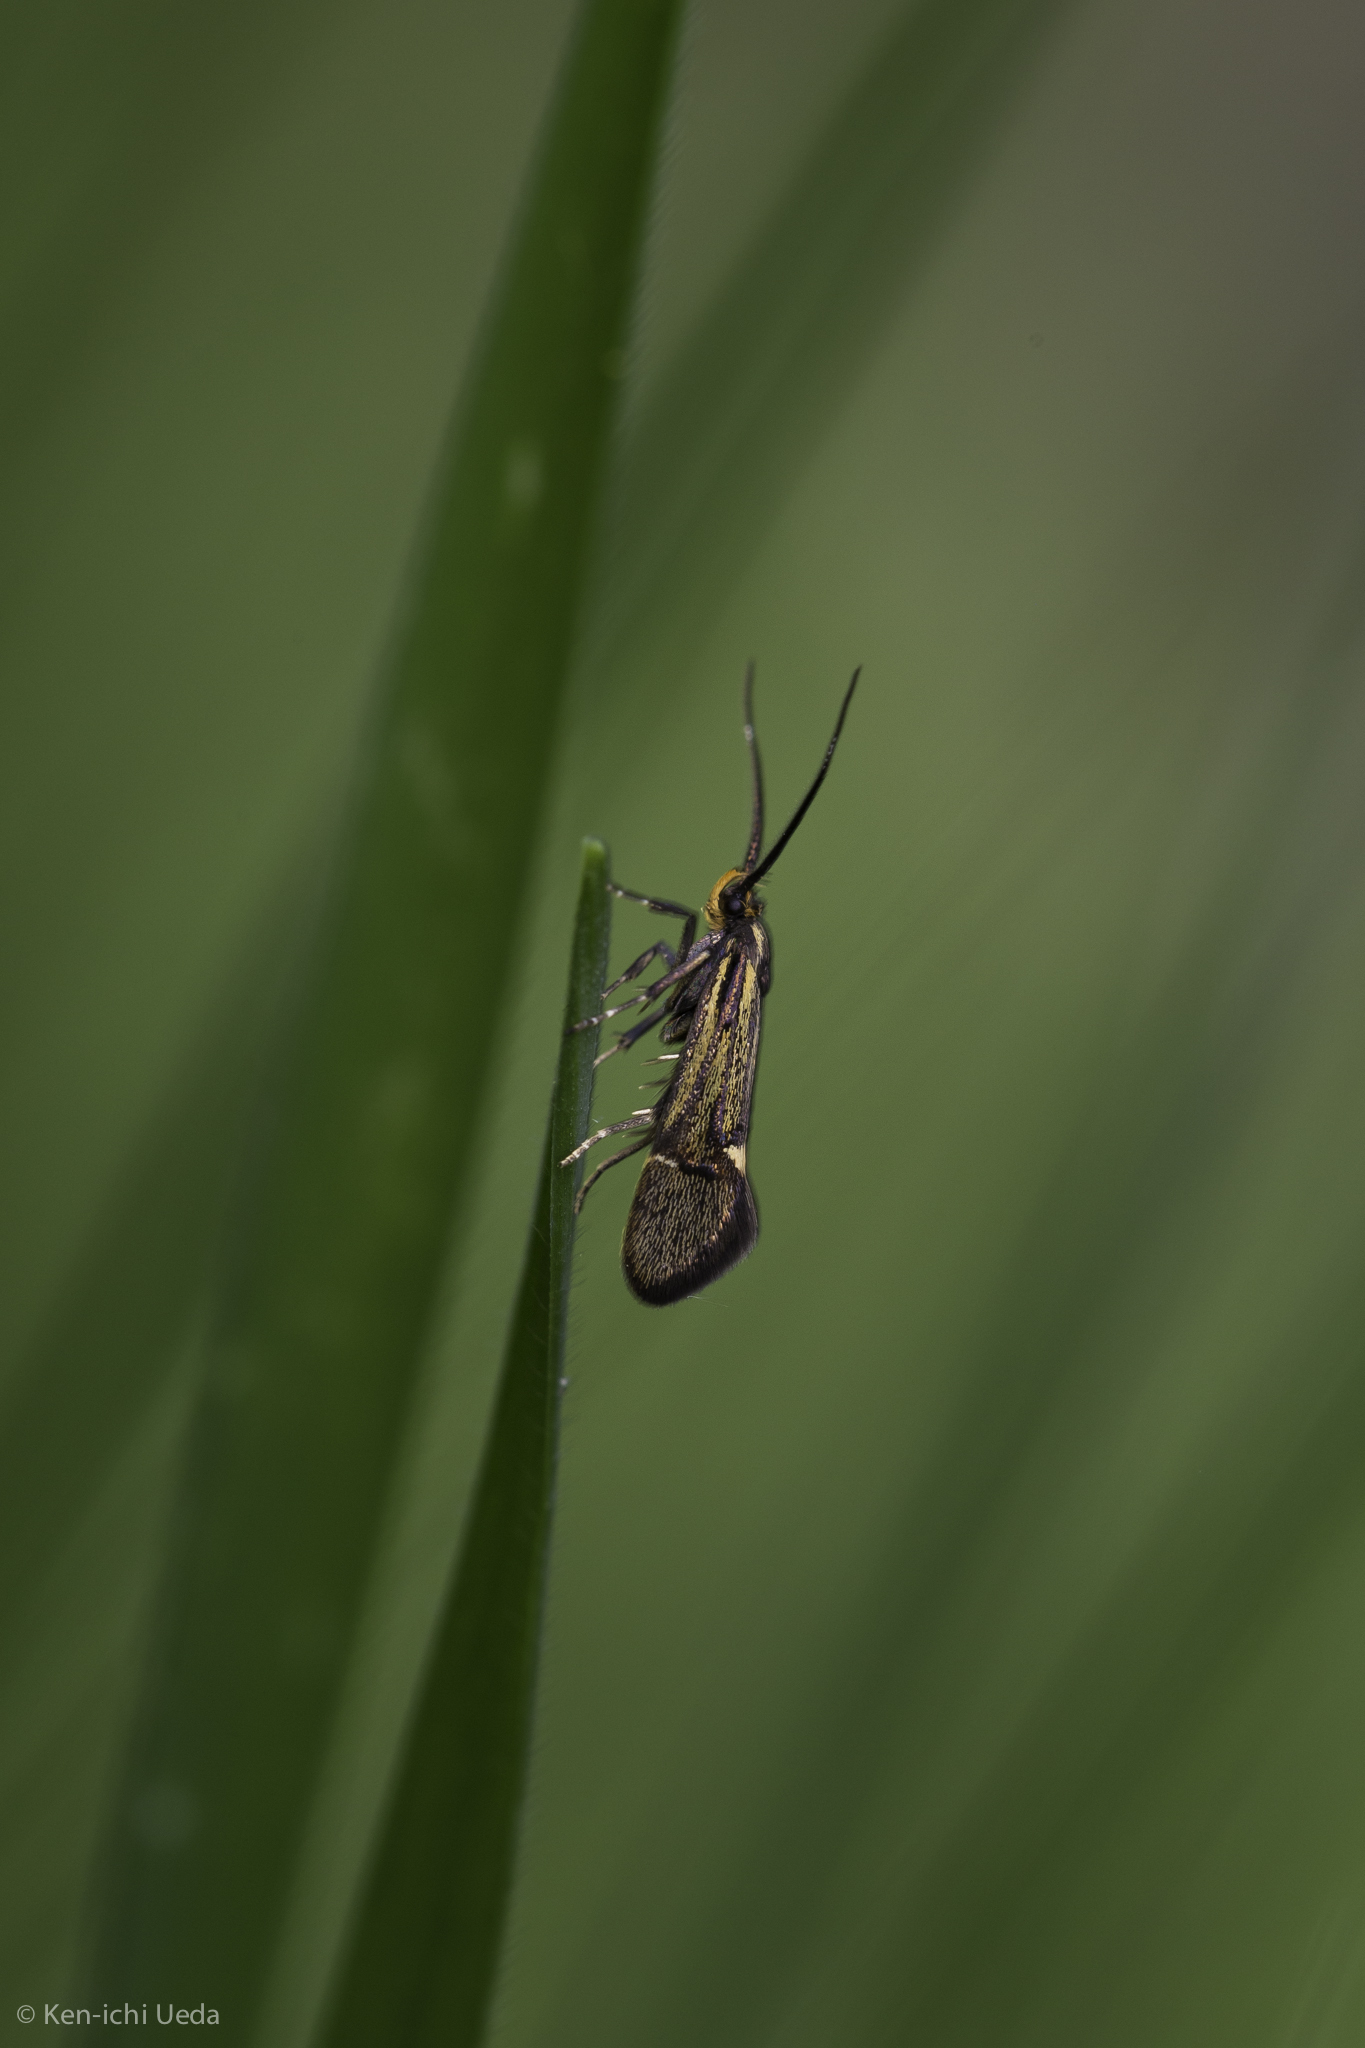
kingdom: Animalia
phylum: Arthropoda
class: Insecta
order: Lepidoptera
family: Oecophoridae
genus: Dafa
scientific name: Dafa Esperia sulphurella
